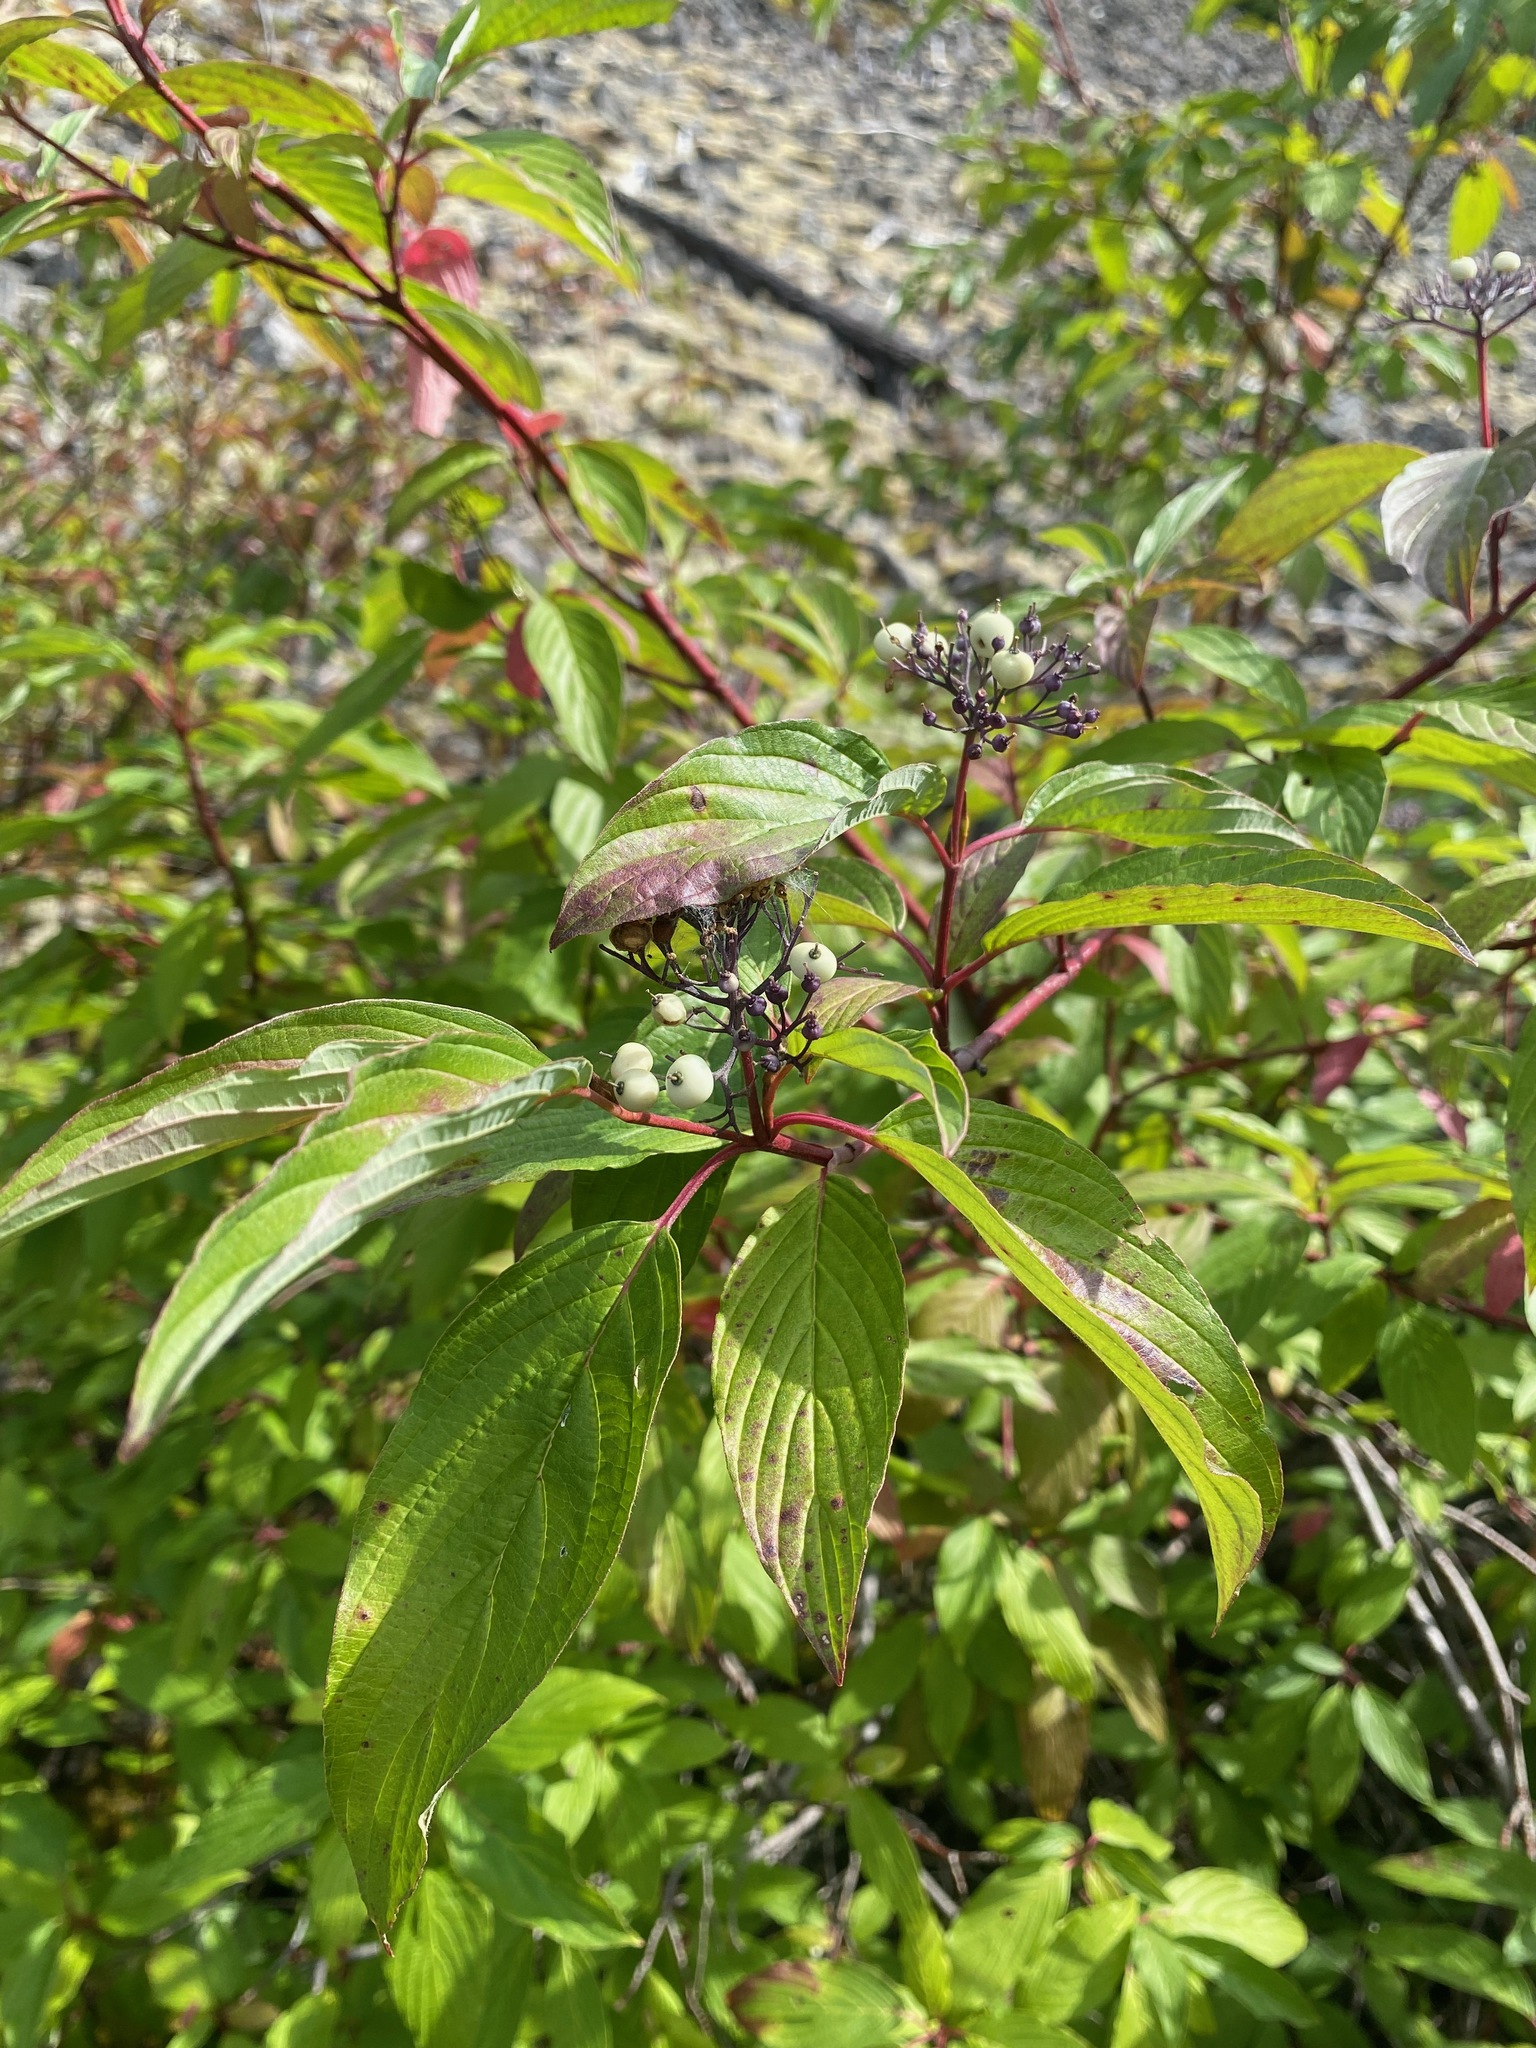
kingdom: Plantae
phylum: Tracheophyta
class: Magnoliopsida
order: Cornales
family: Cornaceae
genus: Cornus
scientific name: Cornus sericea
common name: Red-osier dogwood
